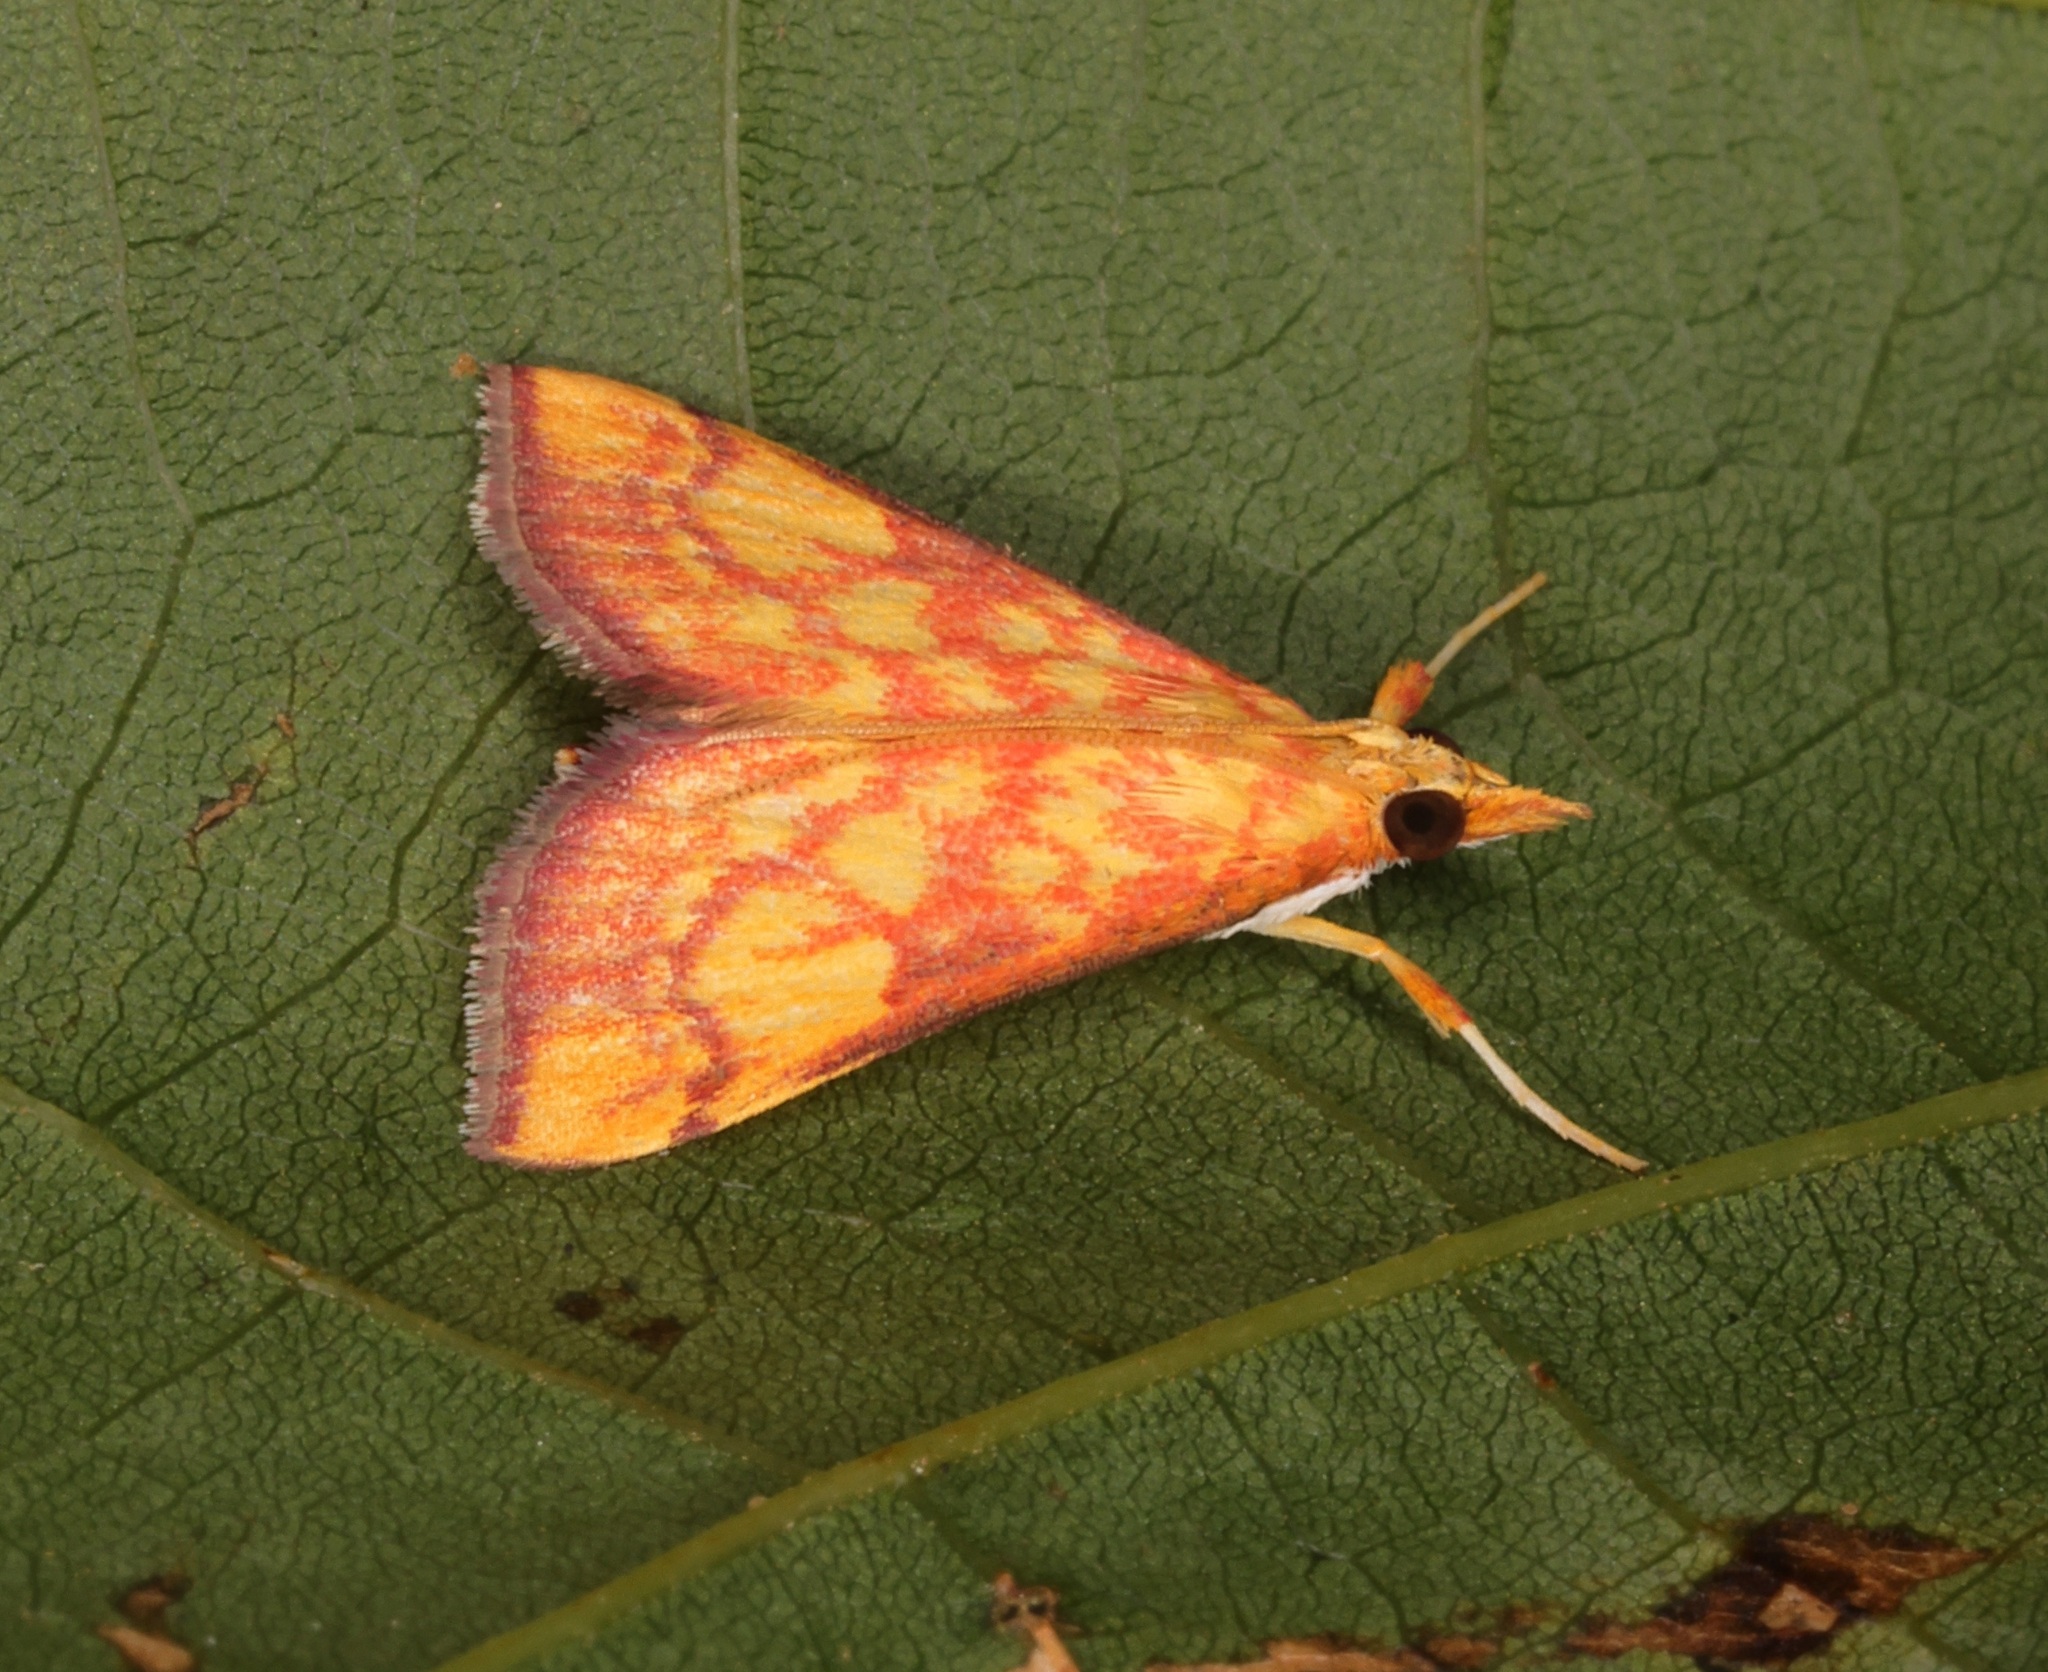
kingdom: Animalia
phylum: Arthropoda
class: Insecta
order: Lepidoptera
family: Crambidae
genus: Pyrausta
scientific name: Pyrausta ignealis
